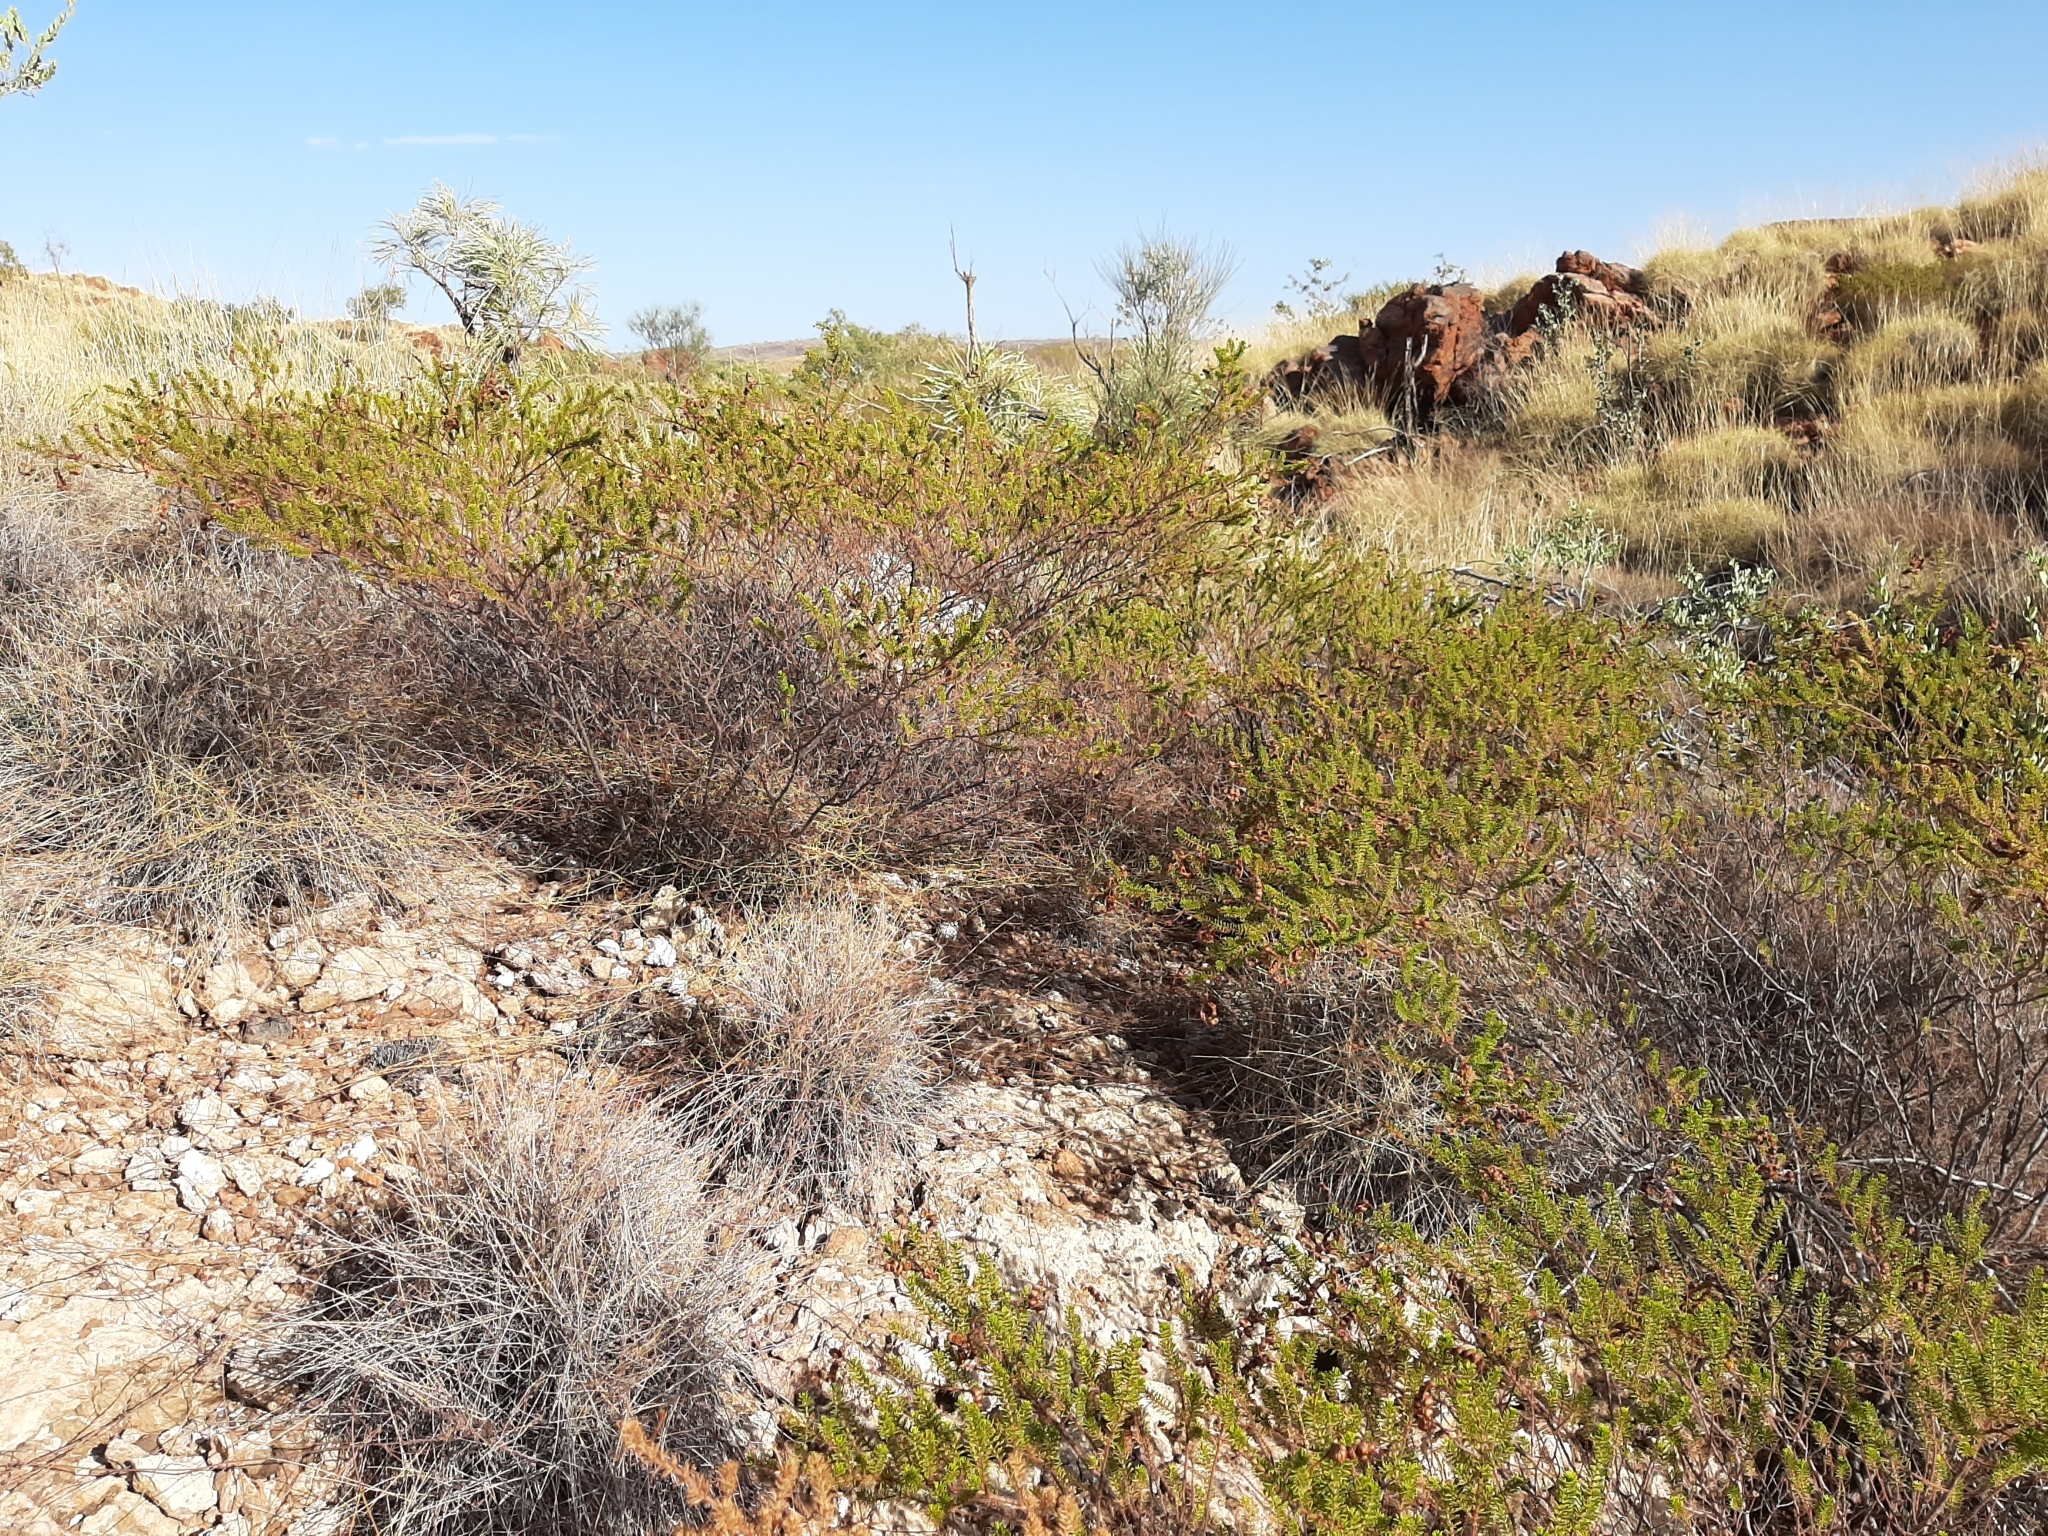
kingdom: Plantae
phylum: Tracheophyta
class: Magnoliopsida
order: Fabales
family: Fabaceae
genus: Acacia
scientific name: Acacia spondylophylla
